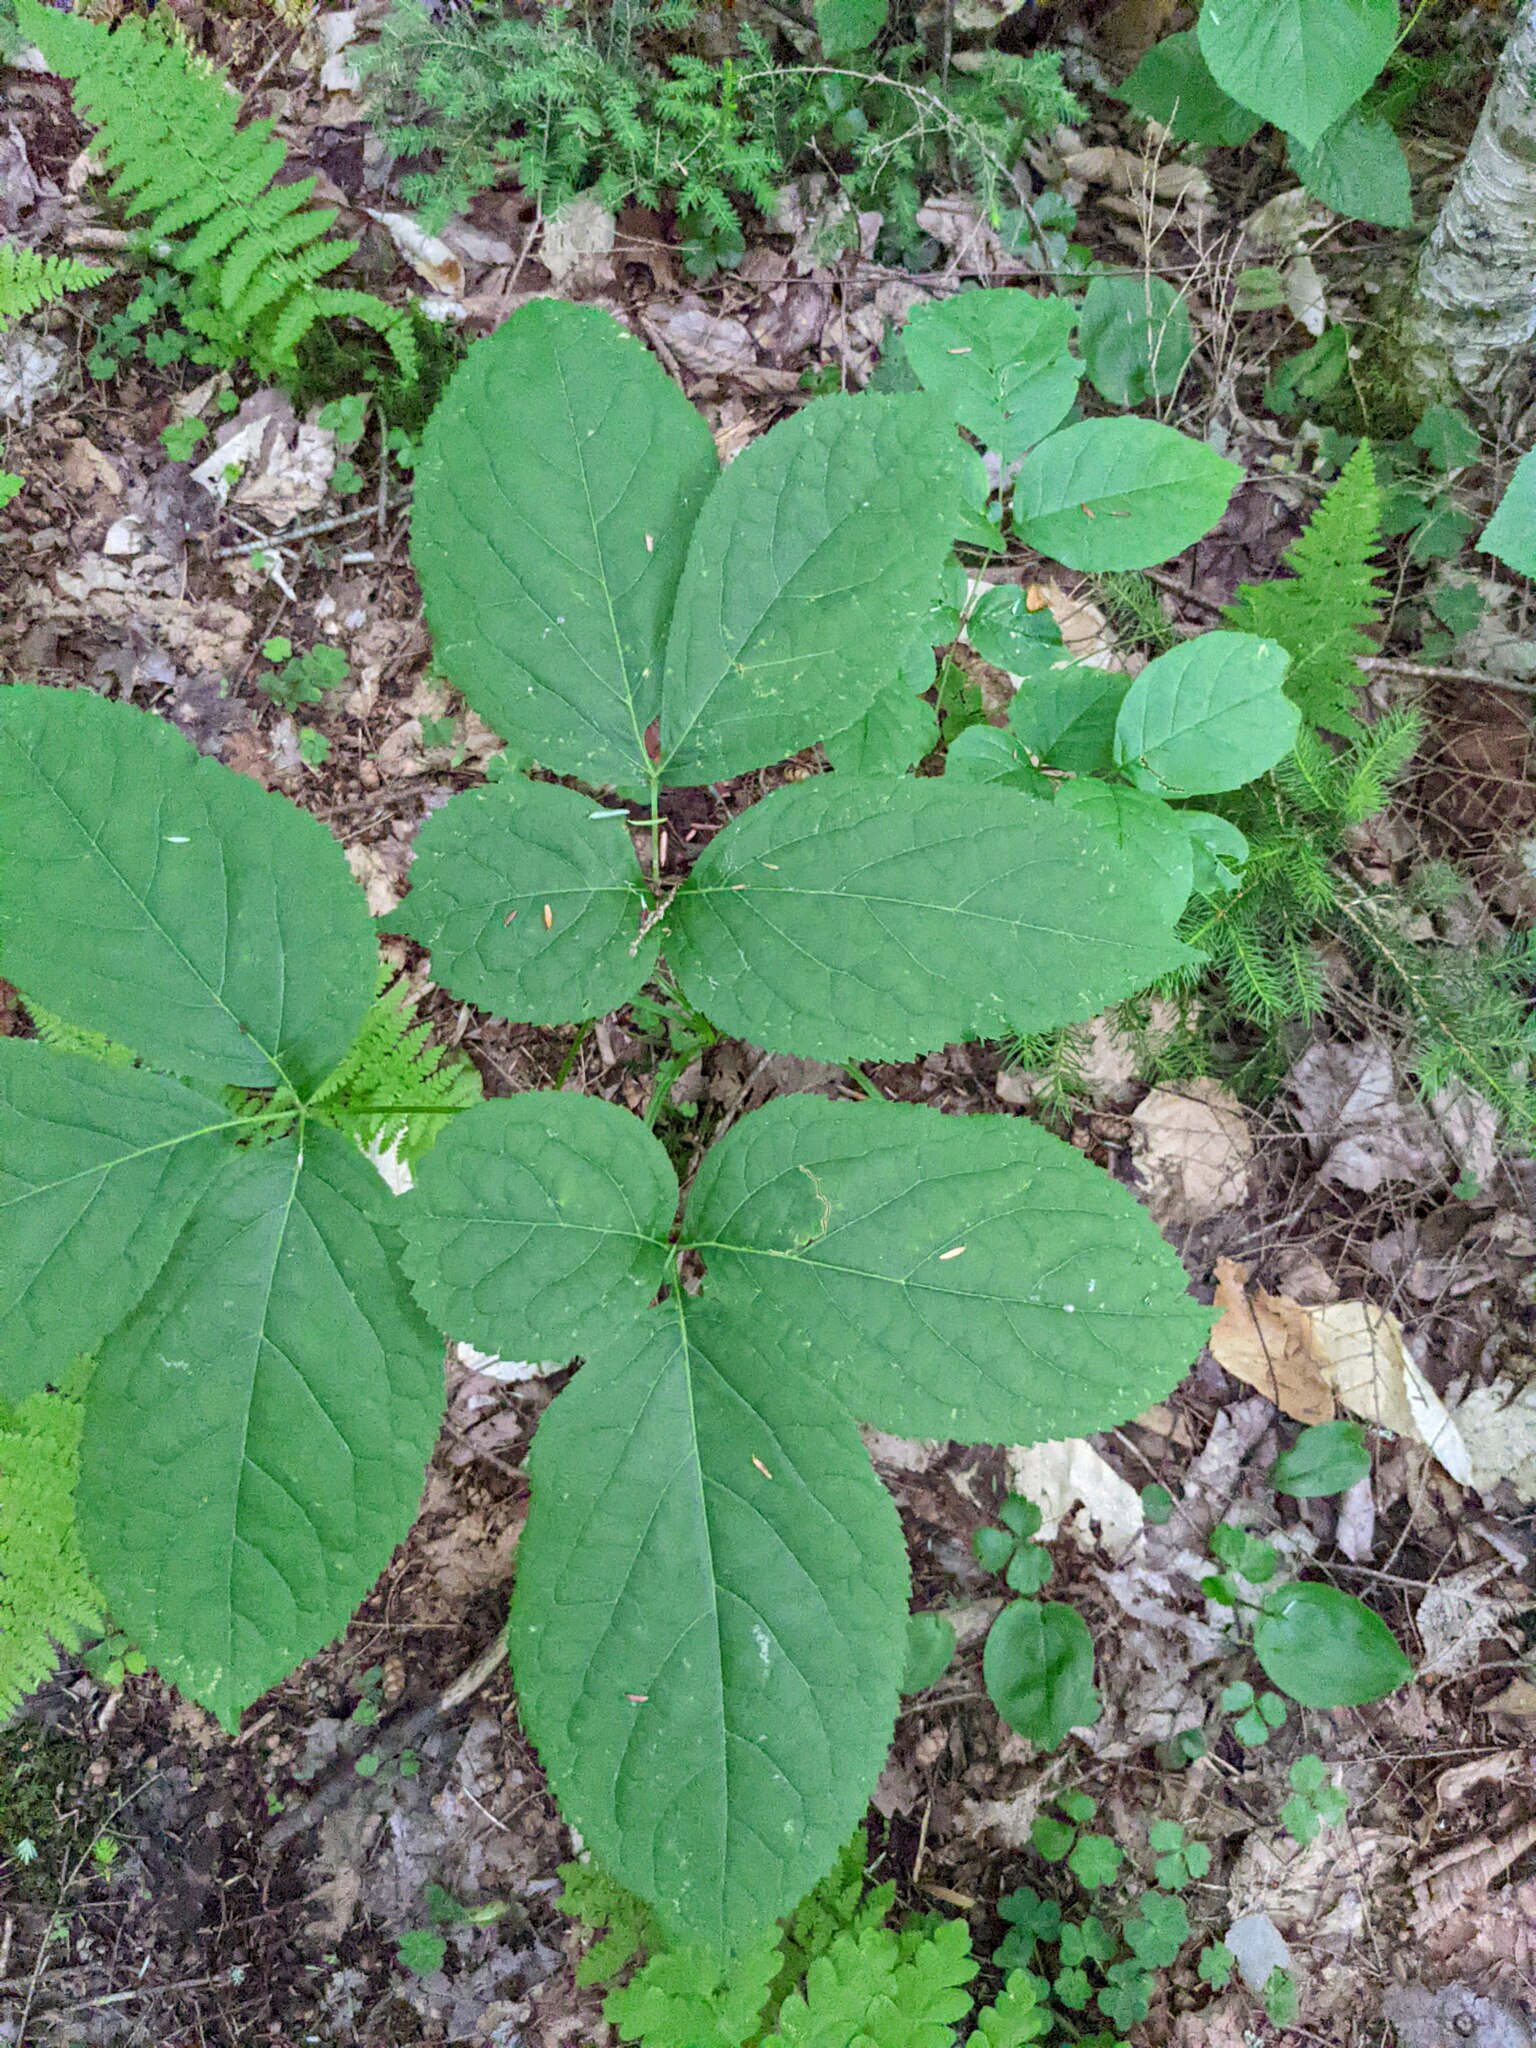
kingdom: Plantae
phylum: Tracheophyta
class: Magnoliopsida
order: Apiales
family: Araliaceae
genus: Aralia
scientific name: Aralia nudicaulis
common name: Wild sarsaparilla
